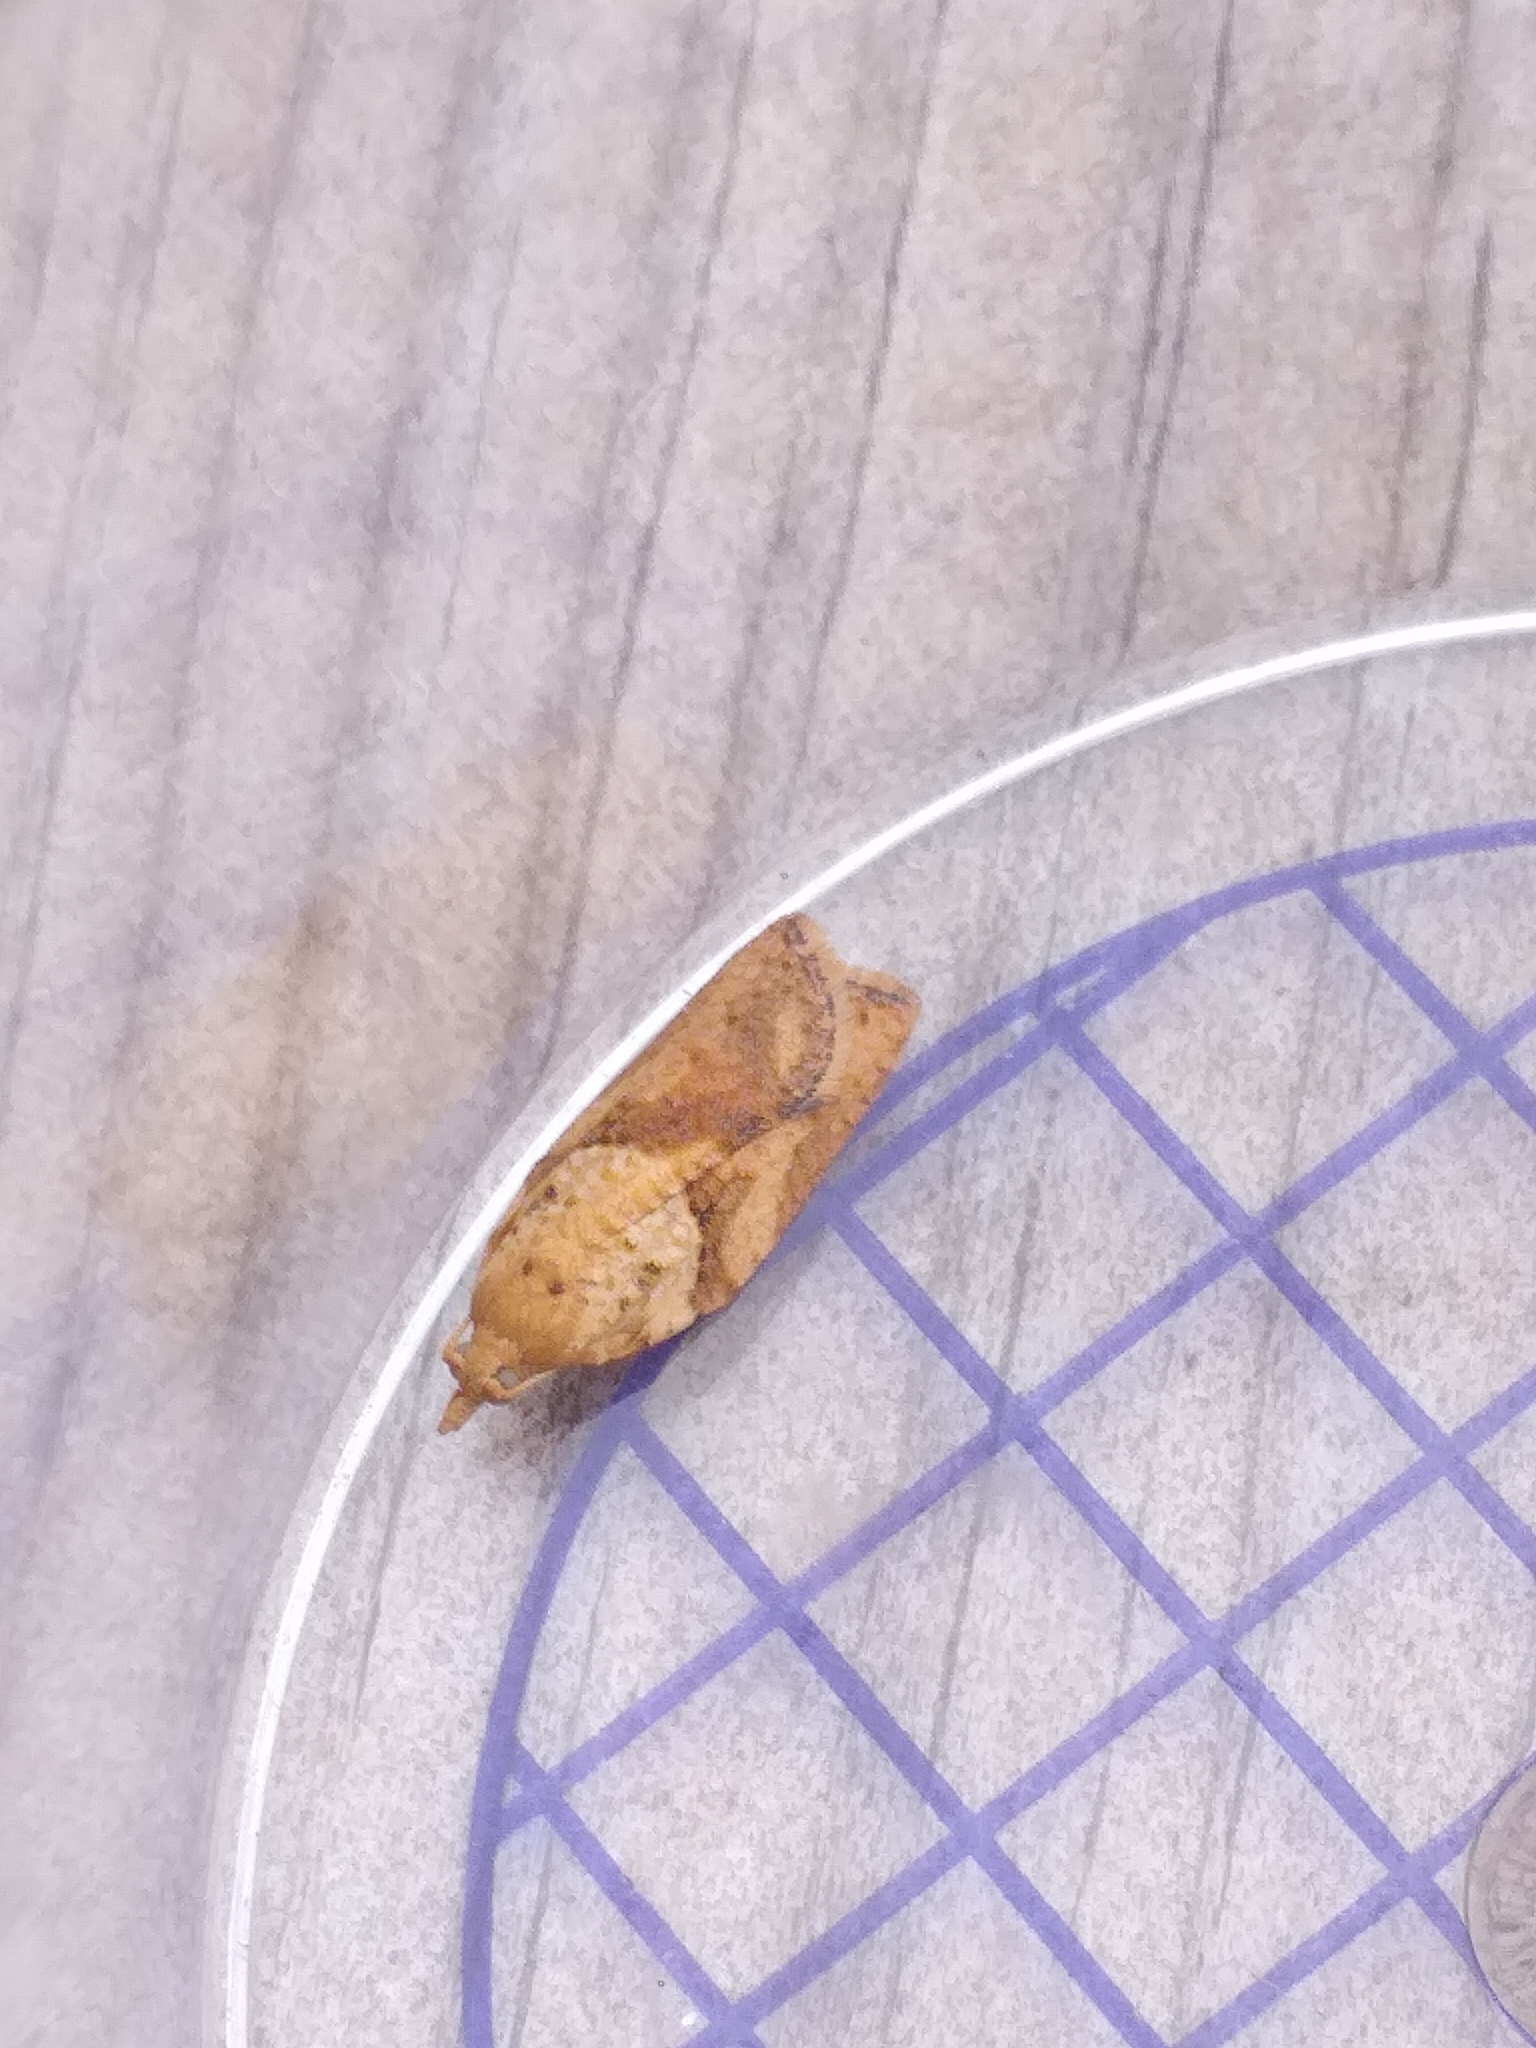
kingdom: Animalia
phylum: Arthropoda
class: Insecta
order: Lepidoptera
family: Tortricidae
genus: Epiphyas
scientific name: Epiphyas postvittana
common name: Light brown apple moth
